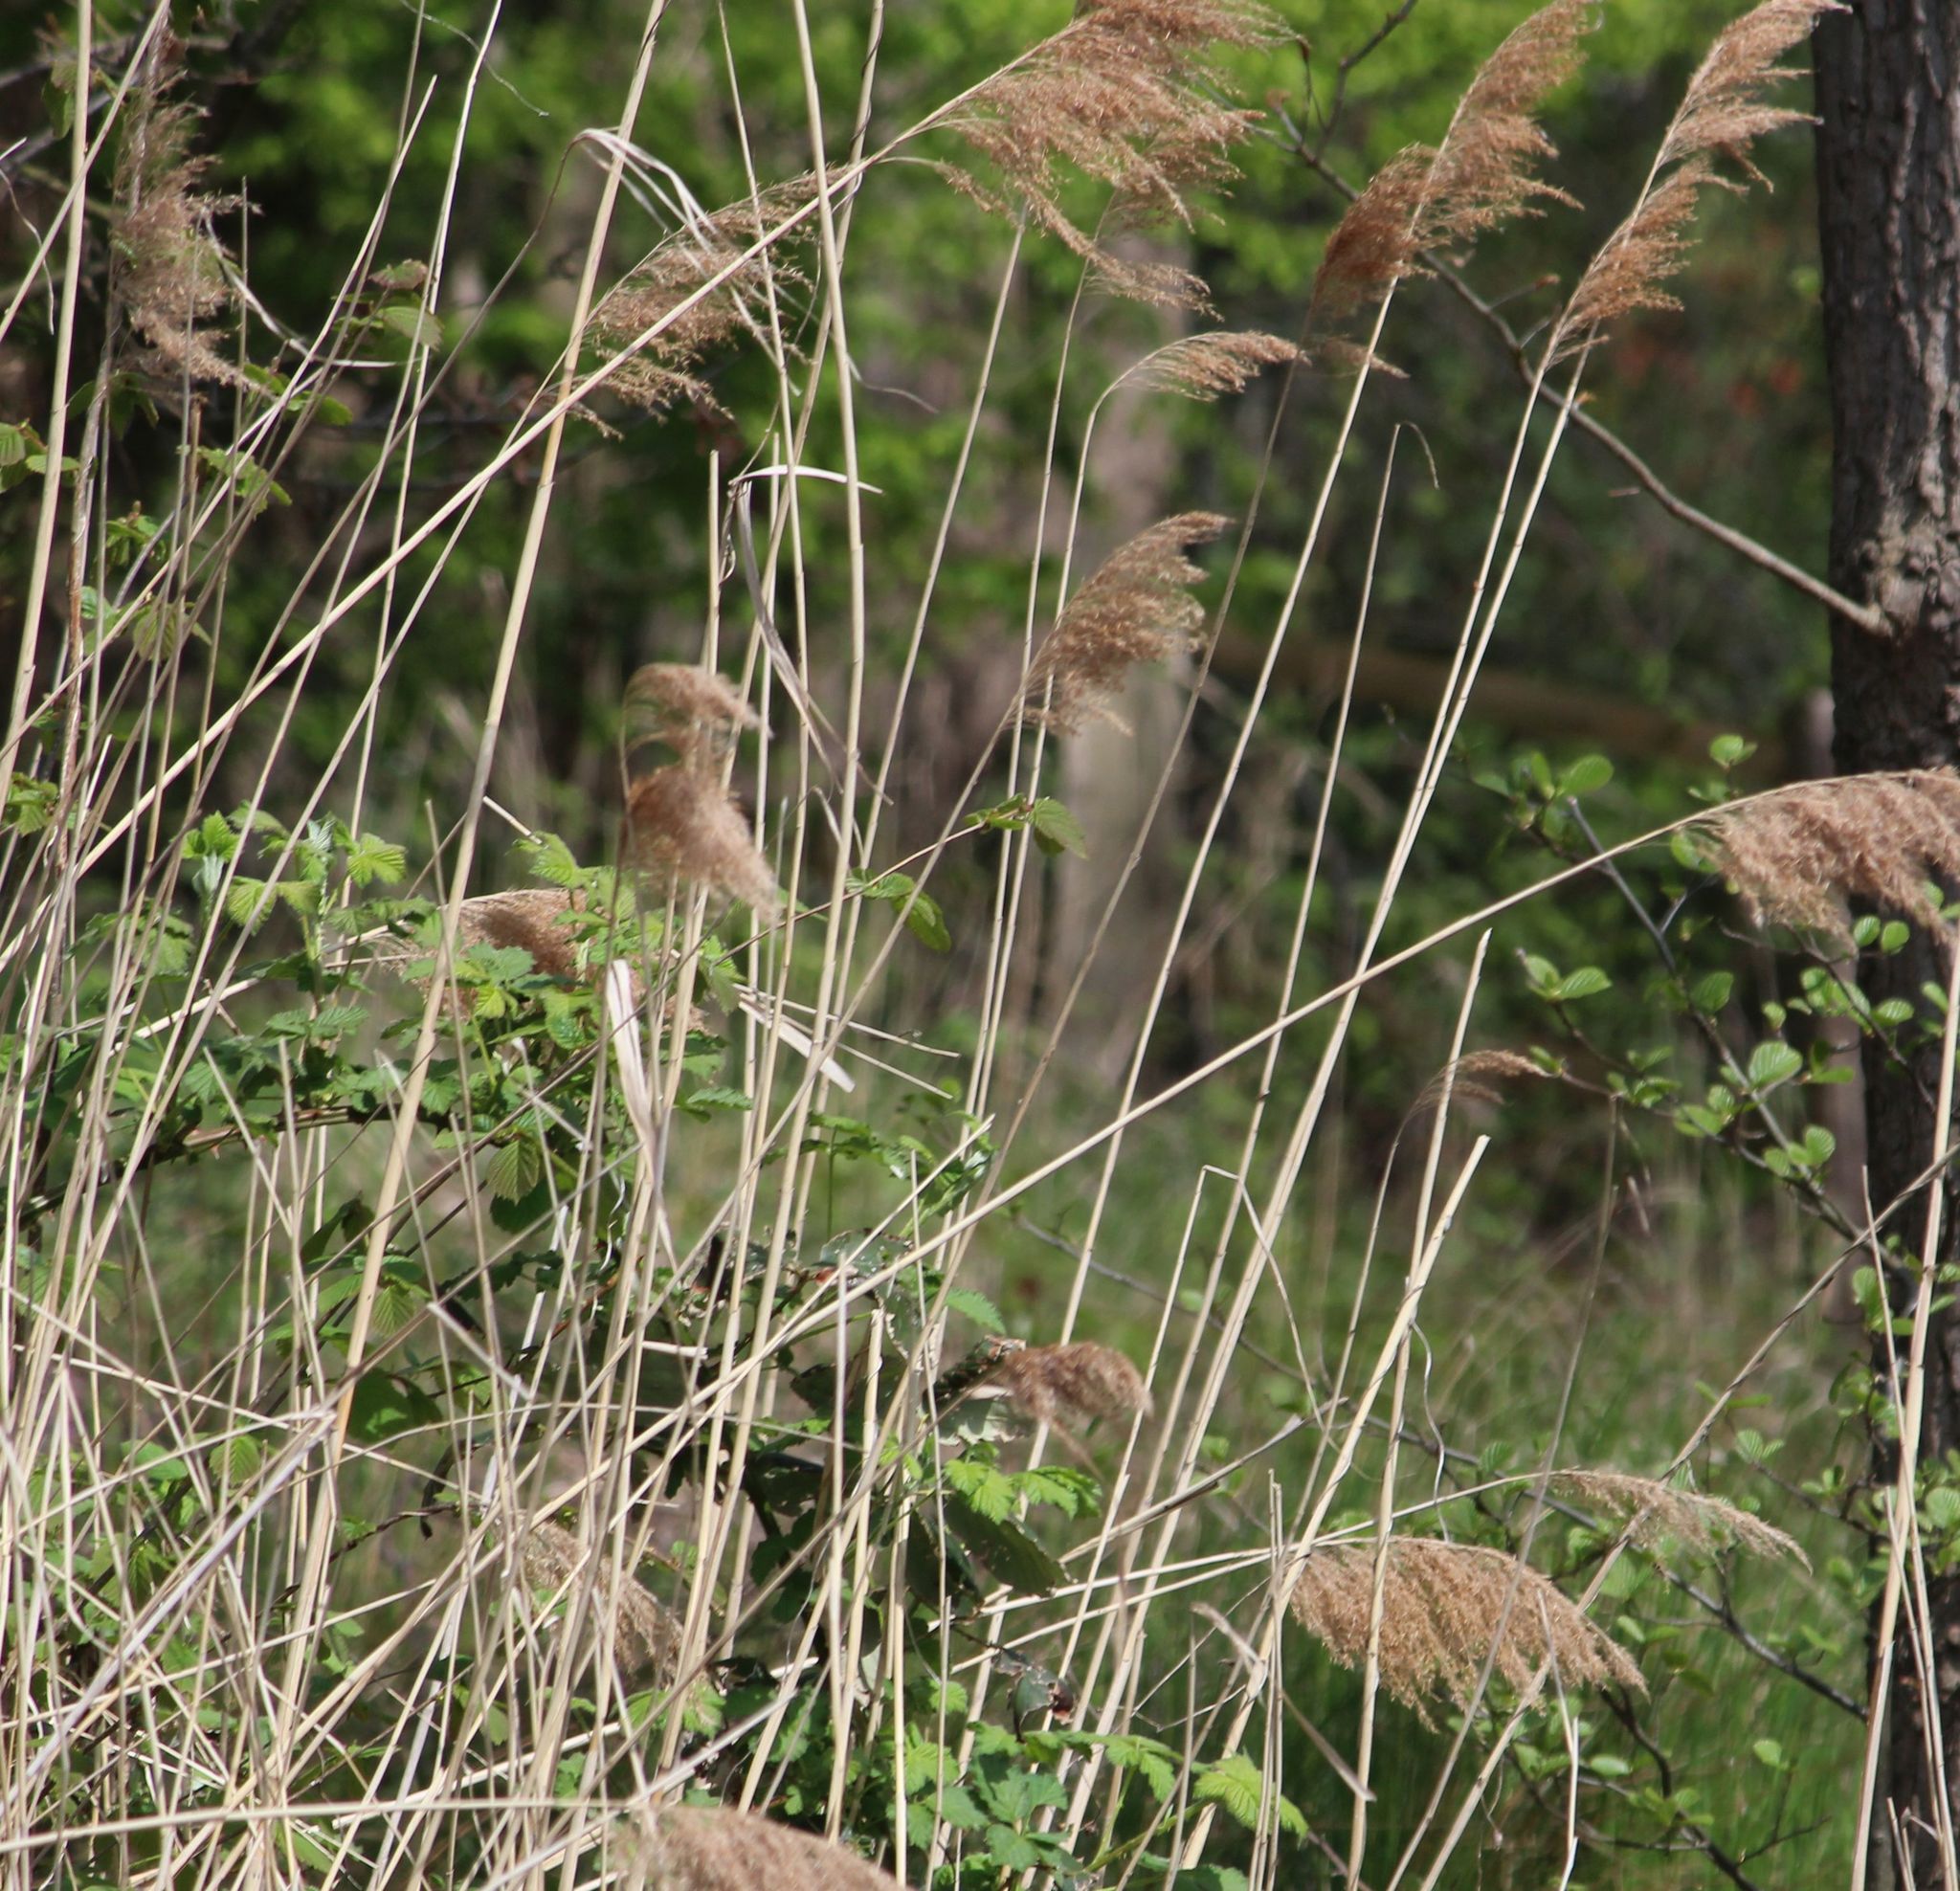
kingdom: Plantae
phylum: Tracheophyta
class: Liliopsida
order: Poales
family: Poaceae
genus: Phragmites
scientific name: Phragmites australis
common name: Common reed
